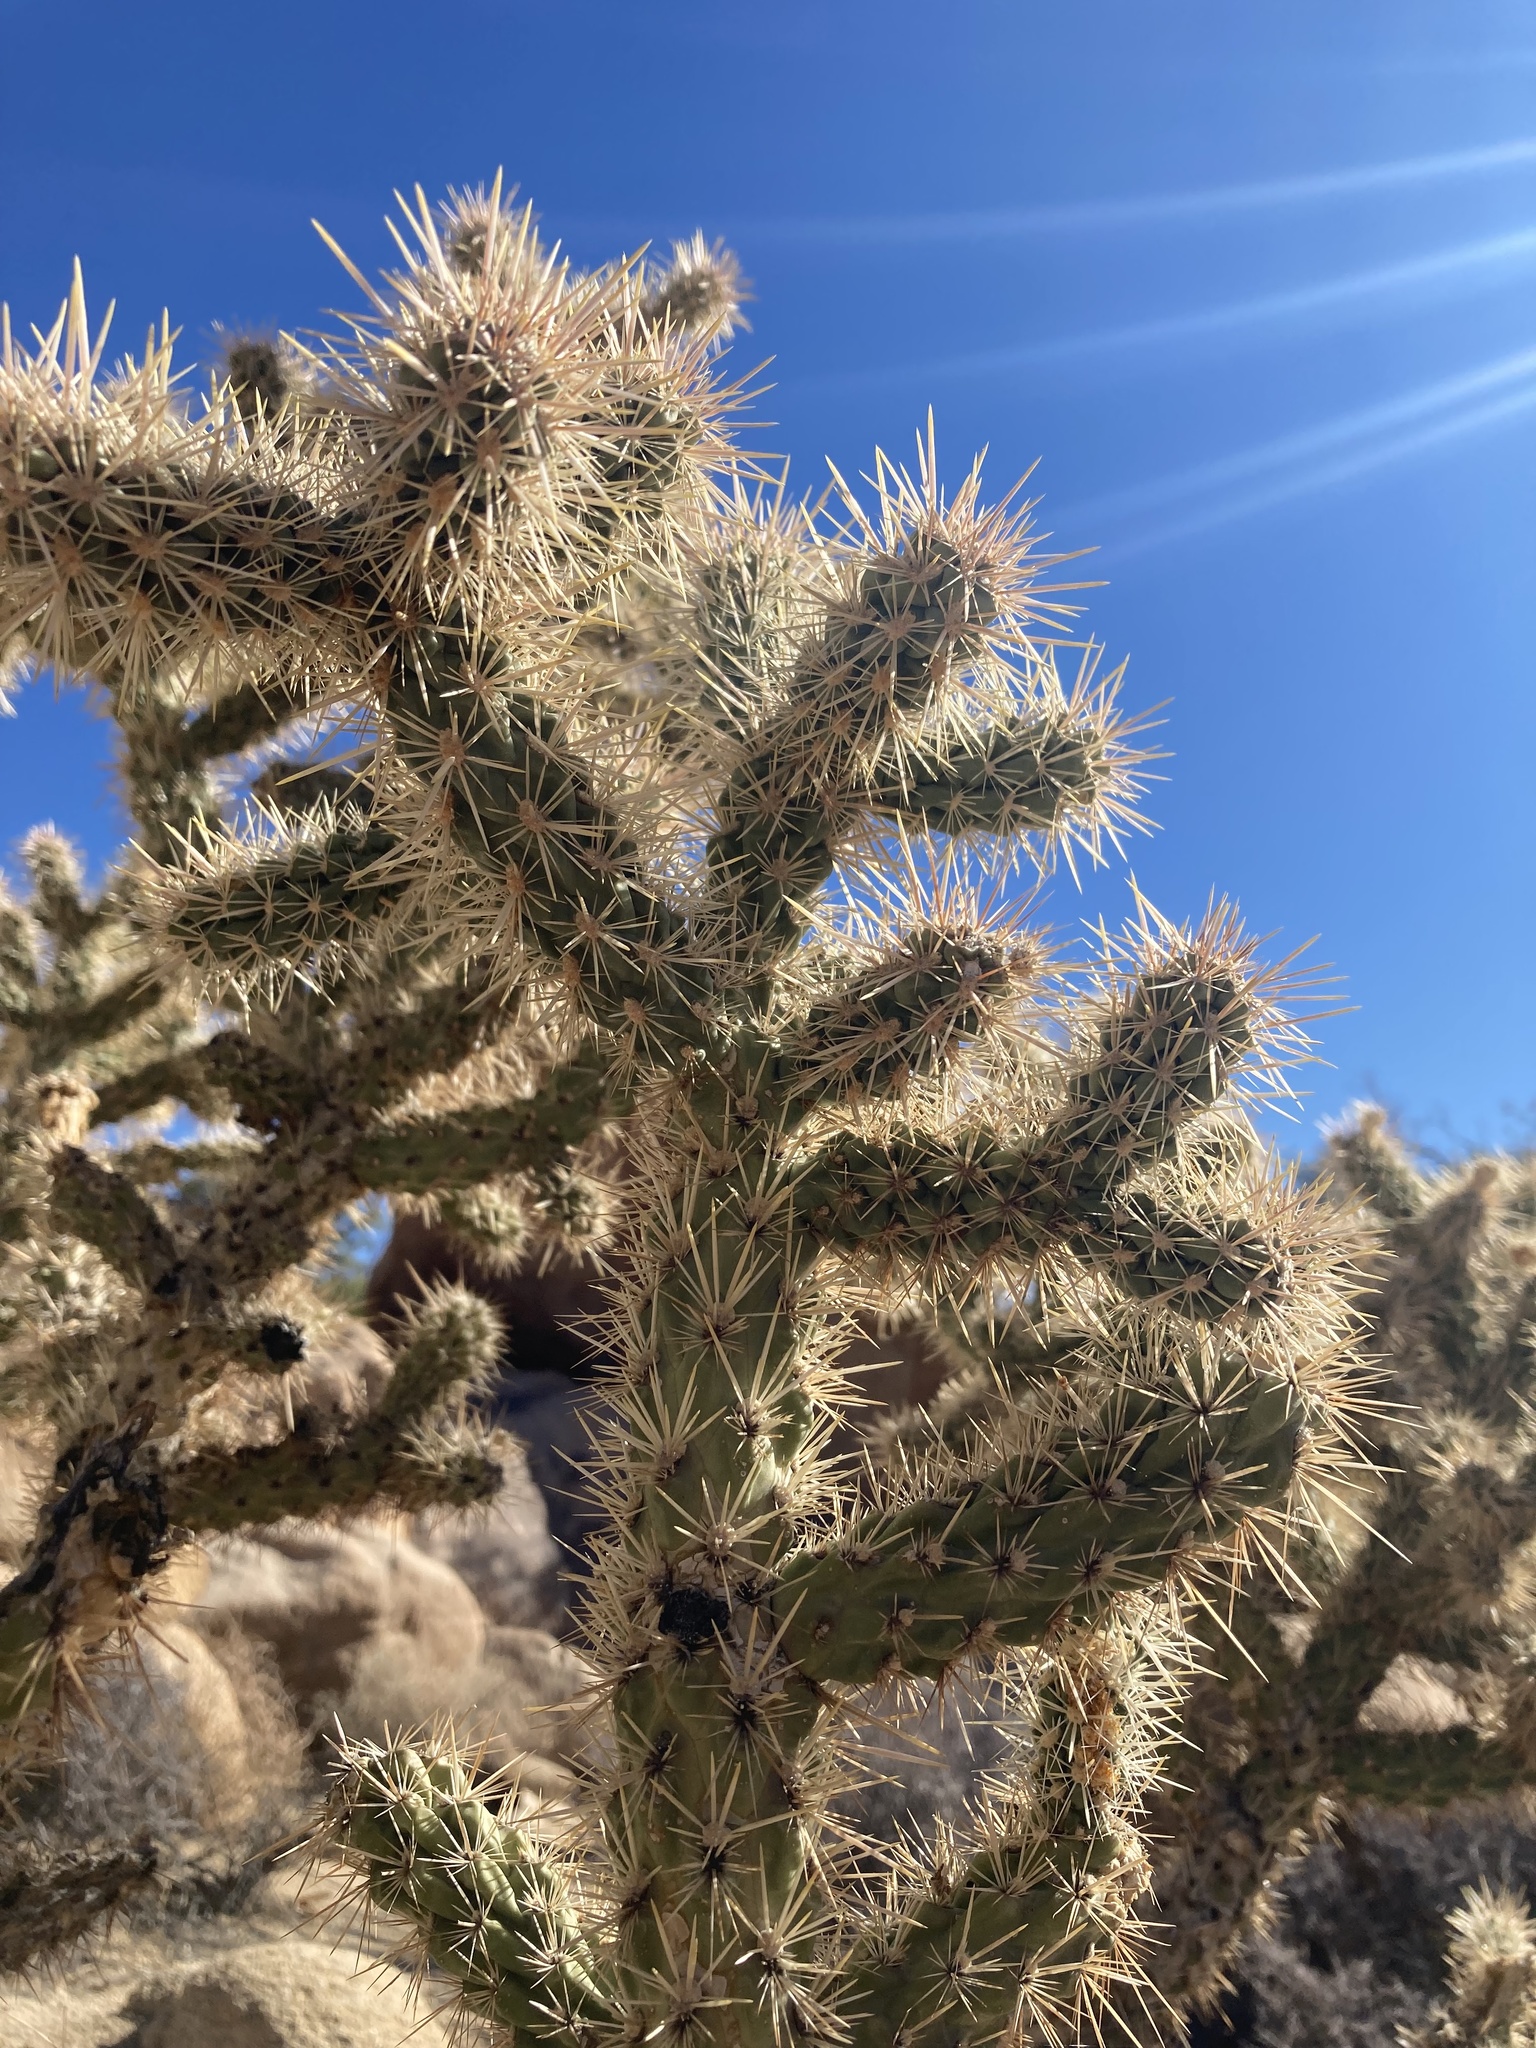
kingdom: Plantae
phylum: Tracheophyta
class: Magnoliopsida
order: Caryophyllales
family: Cactaceae
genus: Cylindropuntia
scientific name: Cylindropuntia echinocarpa
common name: Ground cholla
